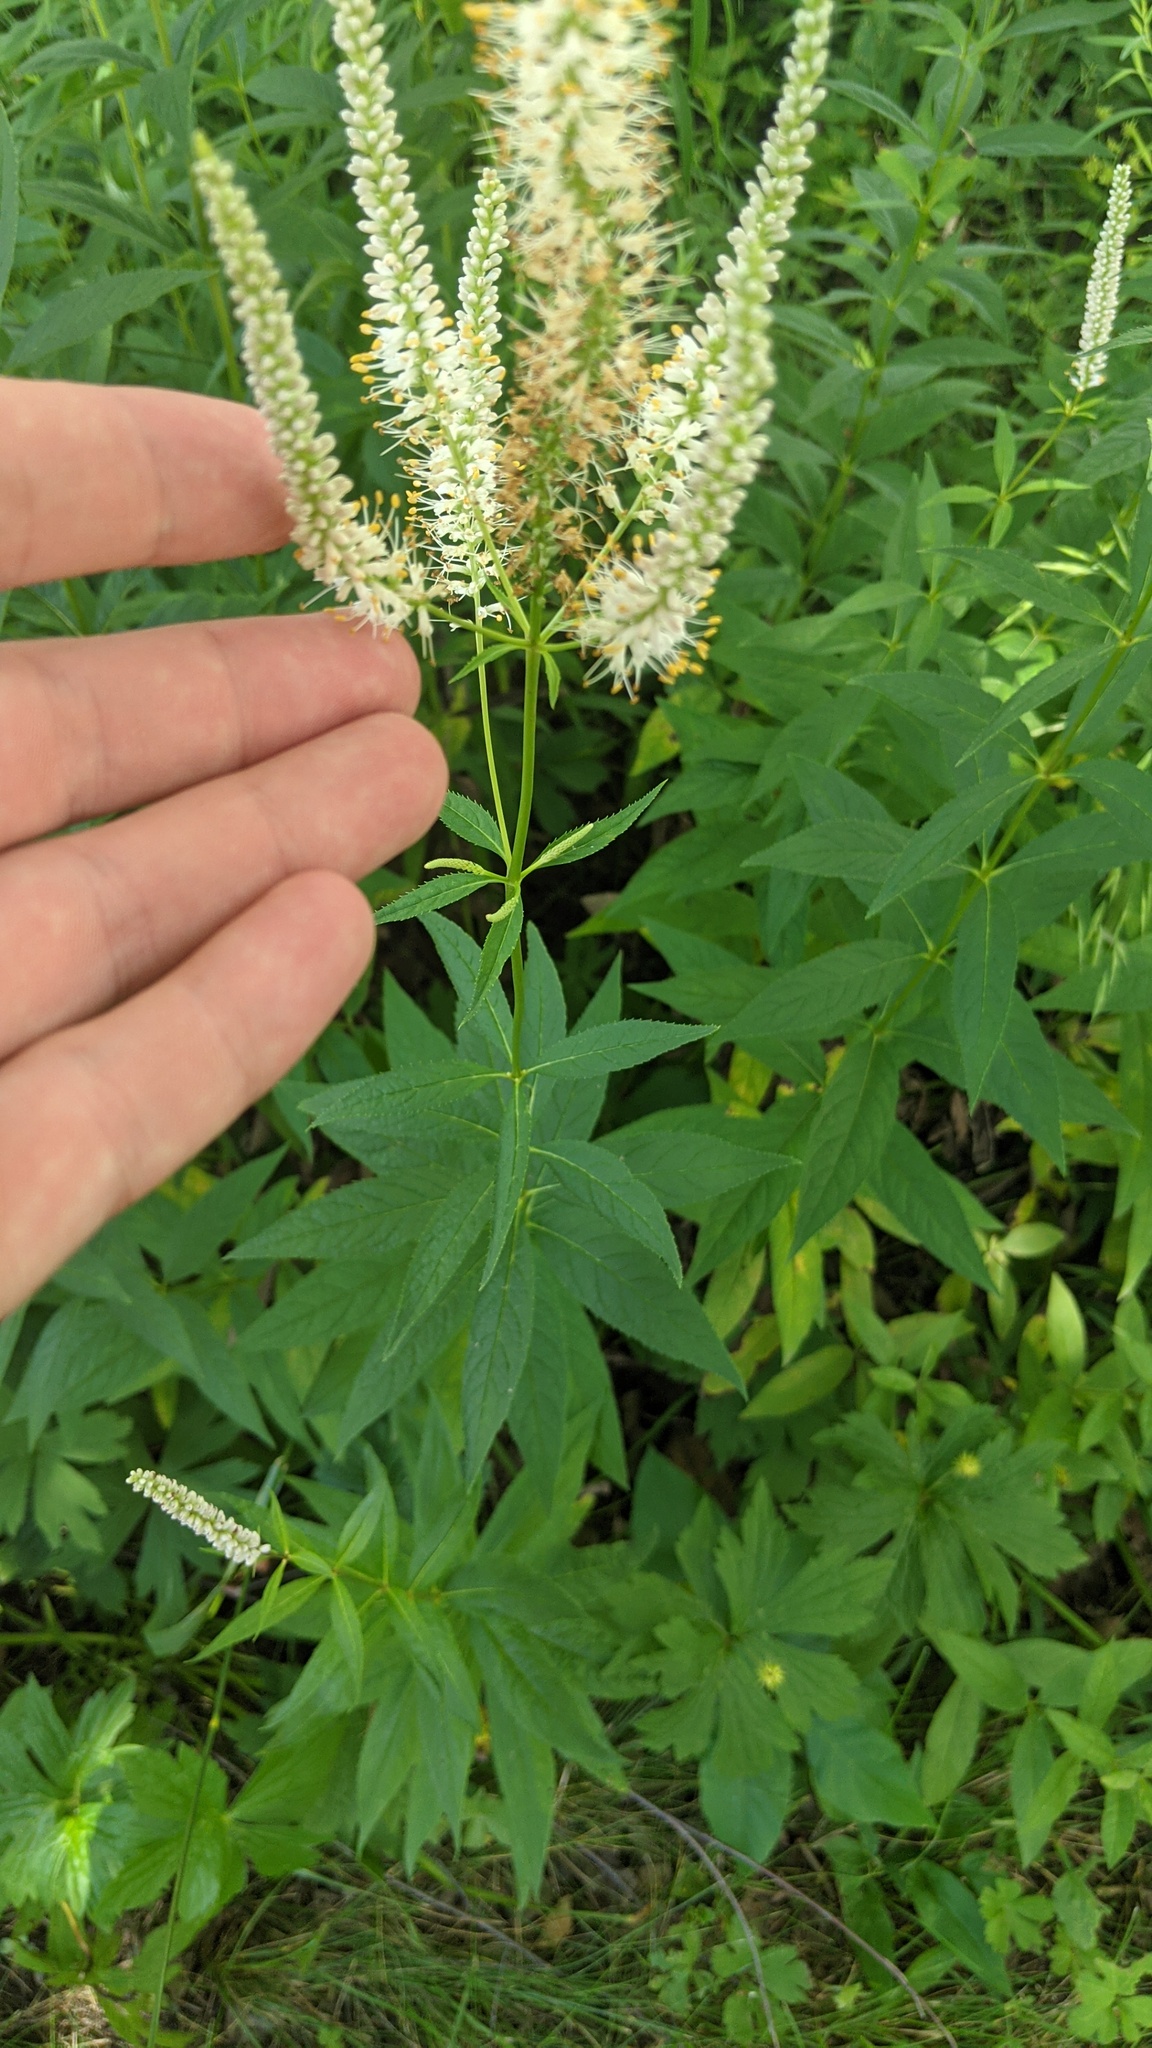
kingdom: Plantae
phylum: Tracheophyta
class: Magnoliopsida
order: Lamiales
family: Plantaginaceae
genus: Veronicastrum
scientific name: Veronicastrum virginicum
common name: Blackroot
